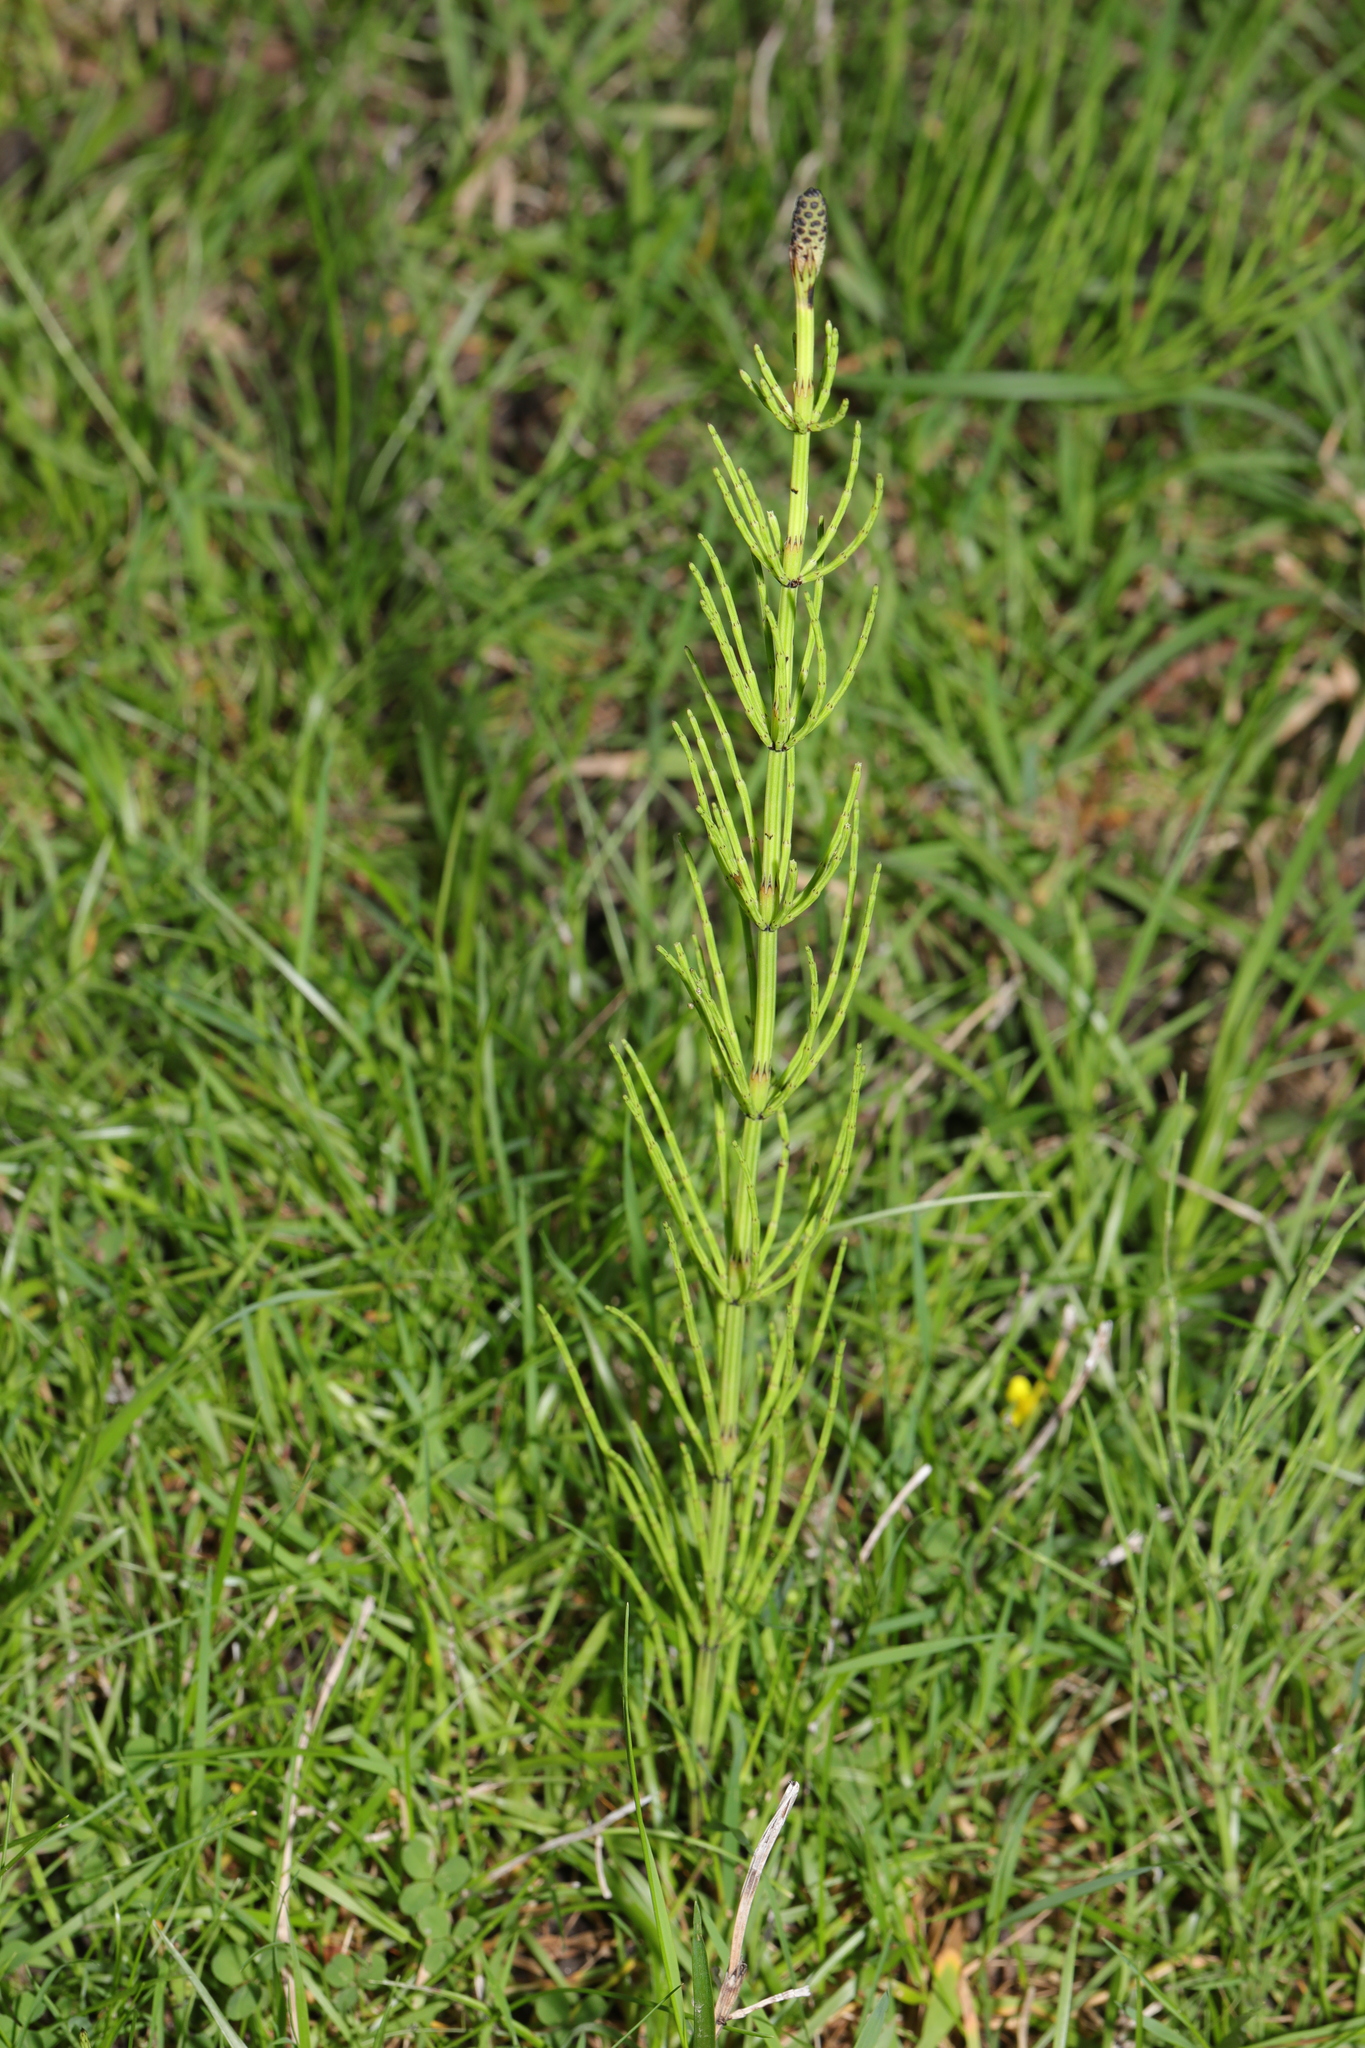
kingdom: Plantae
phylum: Tracheophyta
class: Polypodiopsida
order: Equisetales
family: Equisetaceae
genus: Equisetum
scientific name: Equisetum palustre
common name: Marsh horsetail
